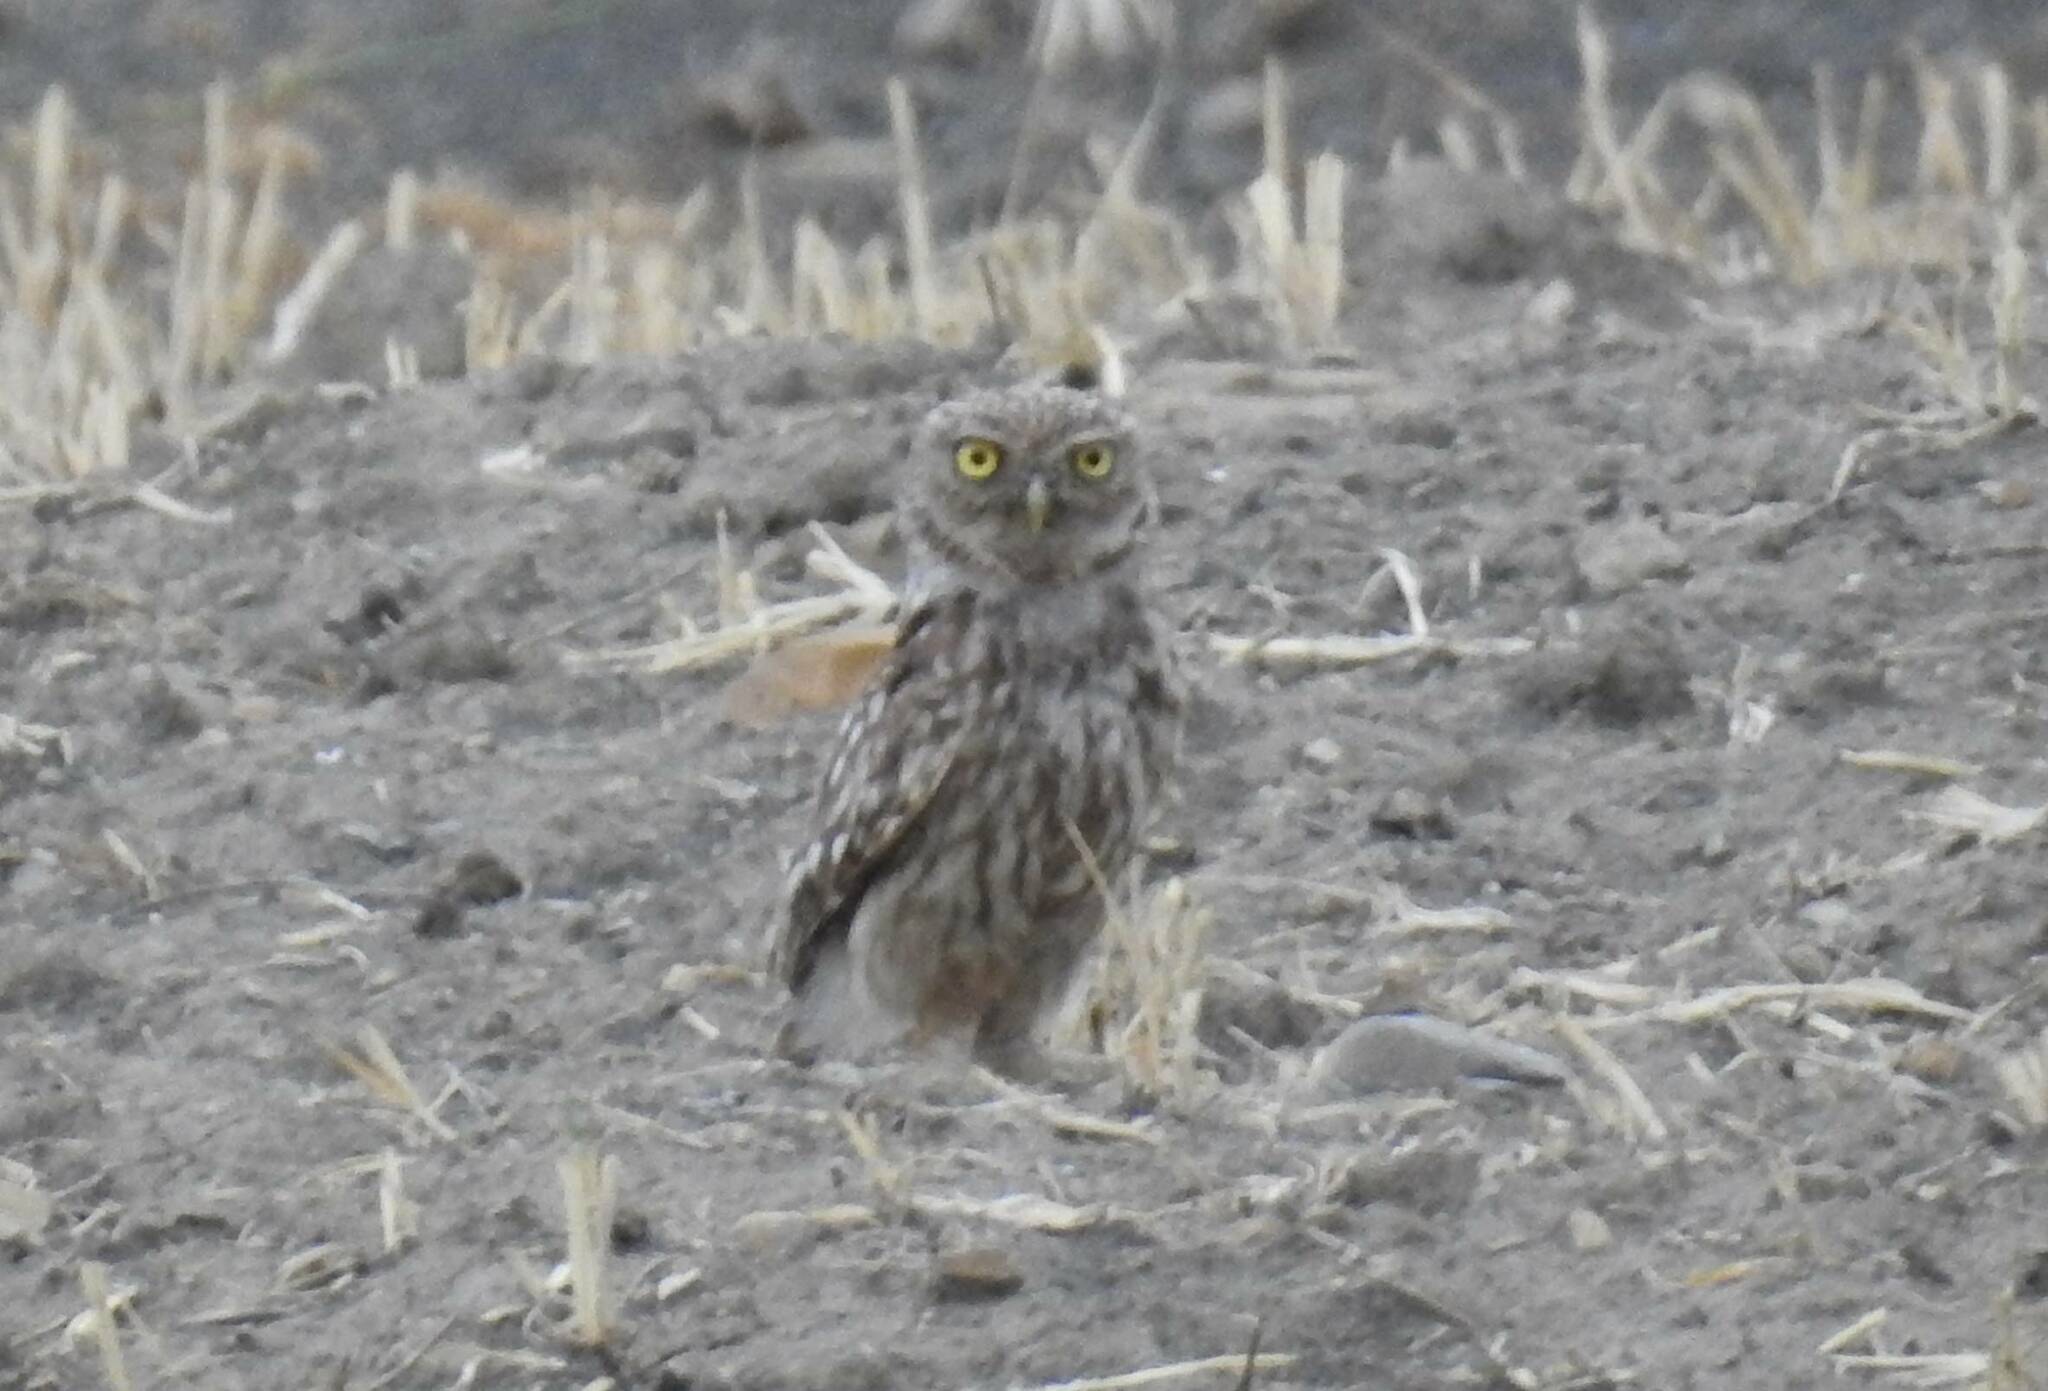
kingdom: Animalia
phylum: Chordata
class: Aves
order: Strigiformes
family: Strigidae
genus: Athene
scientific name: Athene noctua
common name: Little owl
